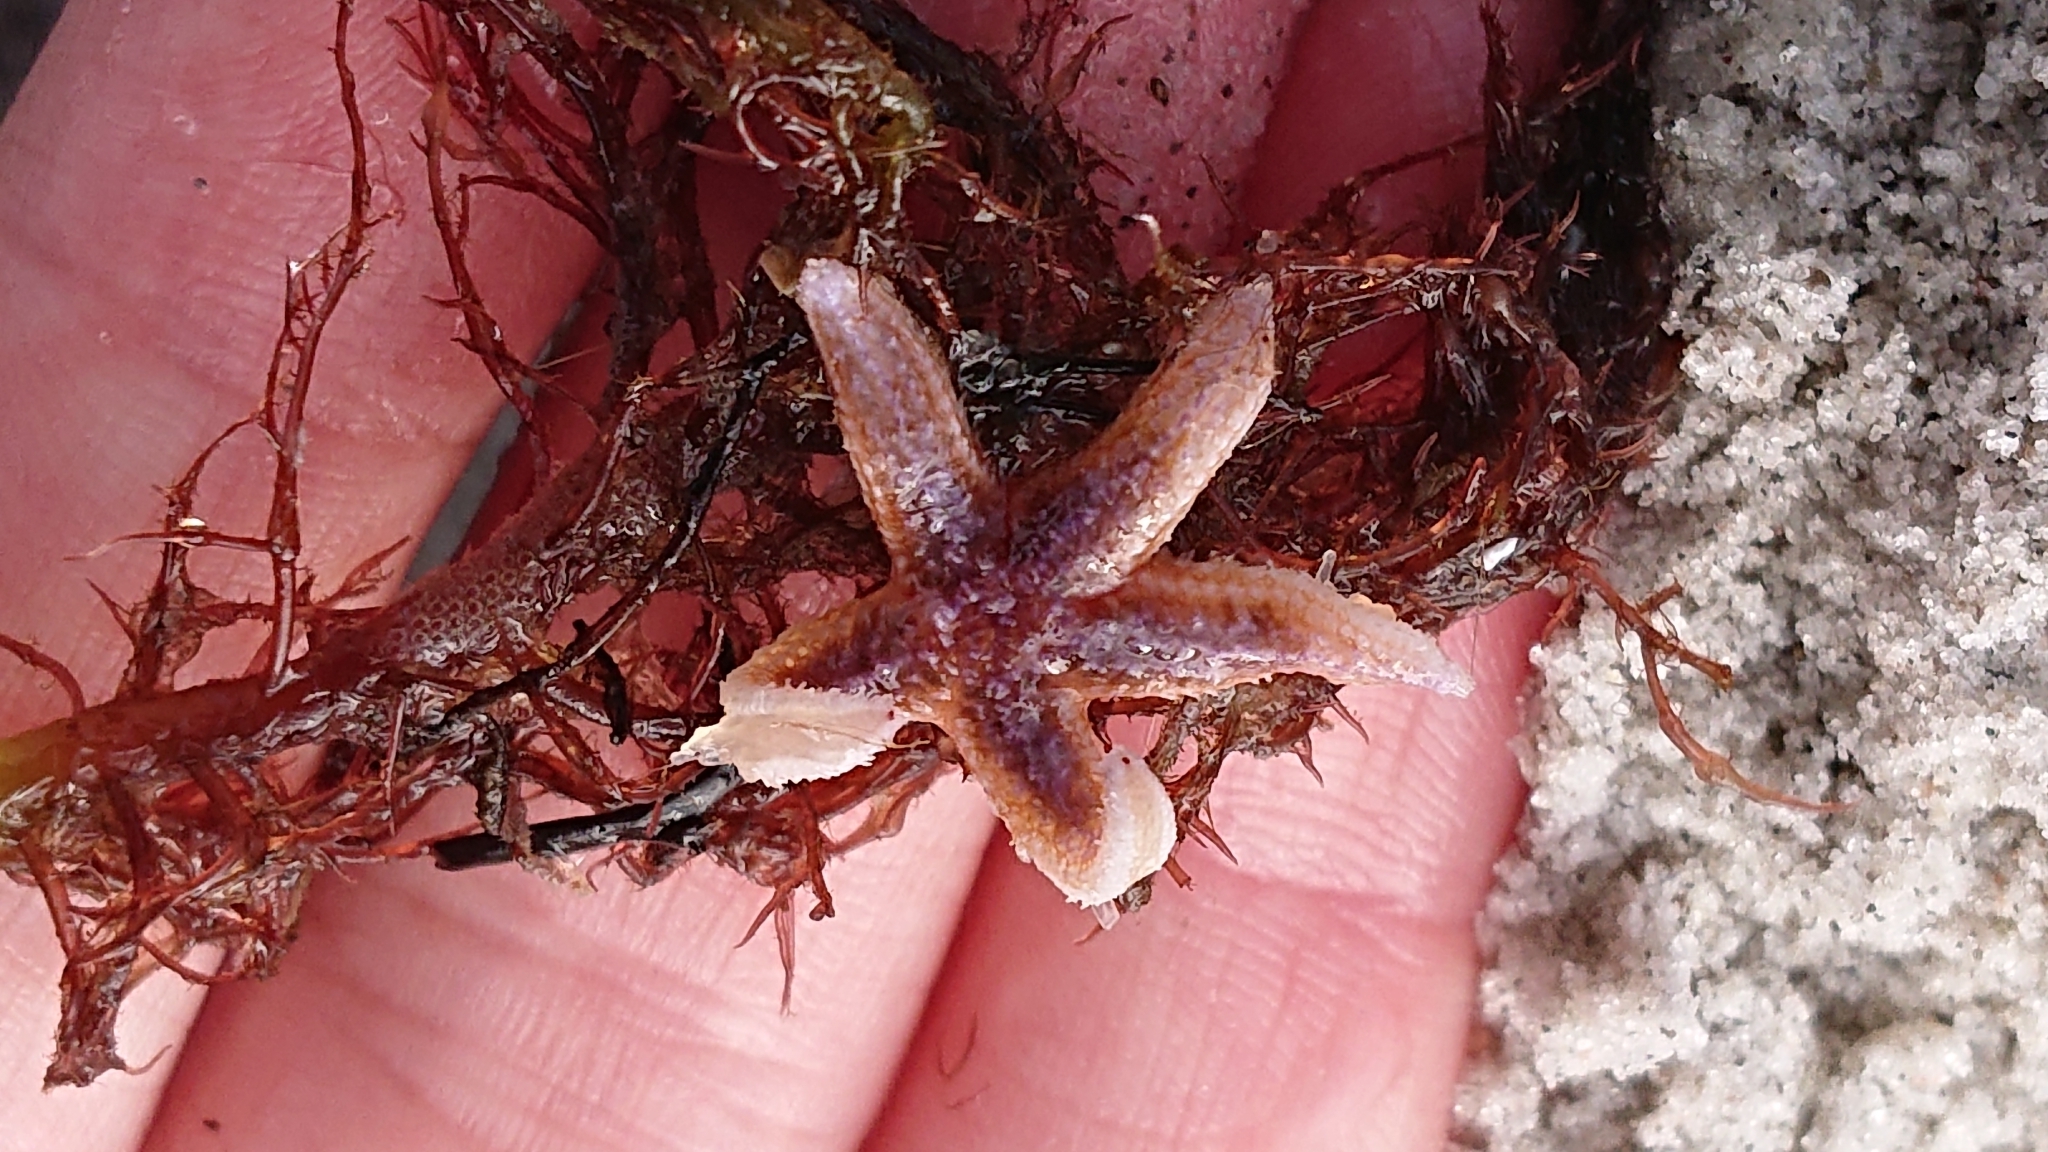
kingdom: Animalia
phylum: Echinodermata
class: Asteroidea
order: Forcipulatida
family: Asteriidae
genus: Asterias
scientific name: Asterias rubens
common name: Common starfish
